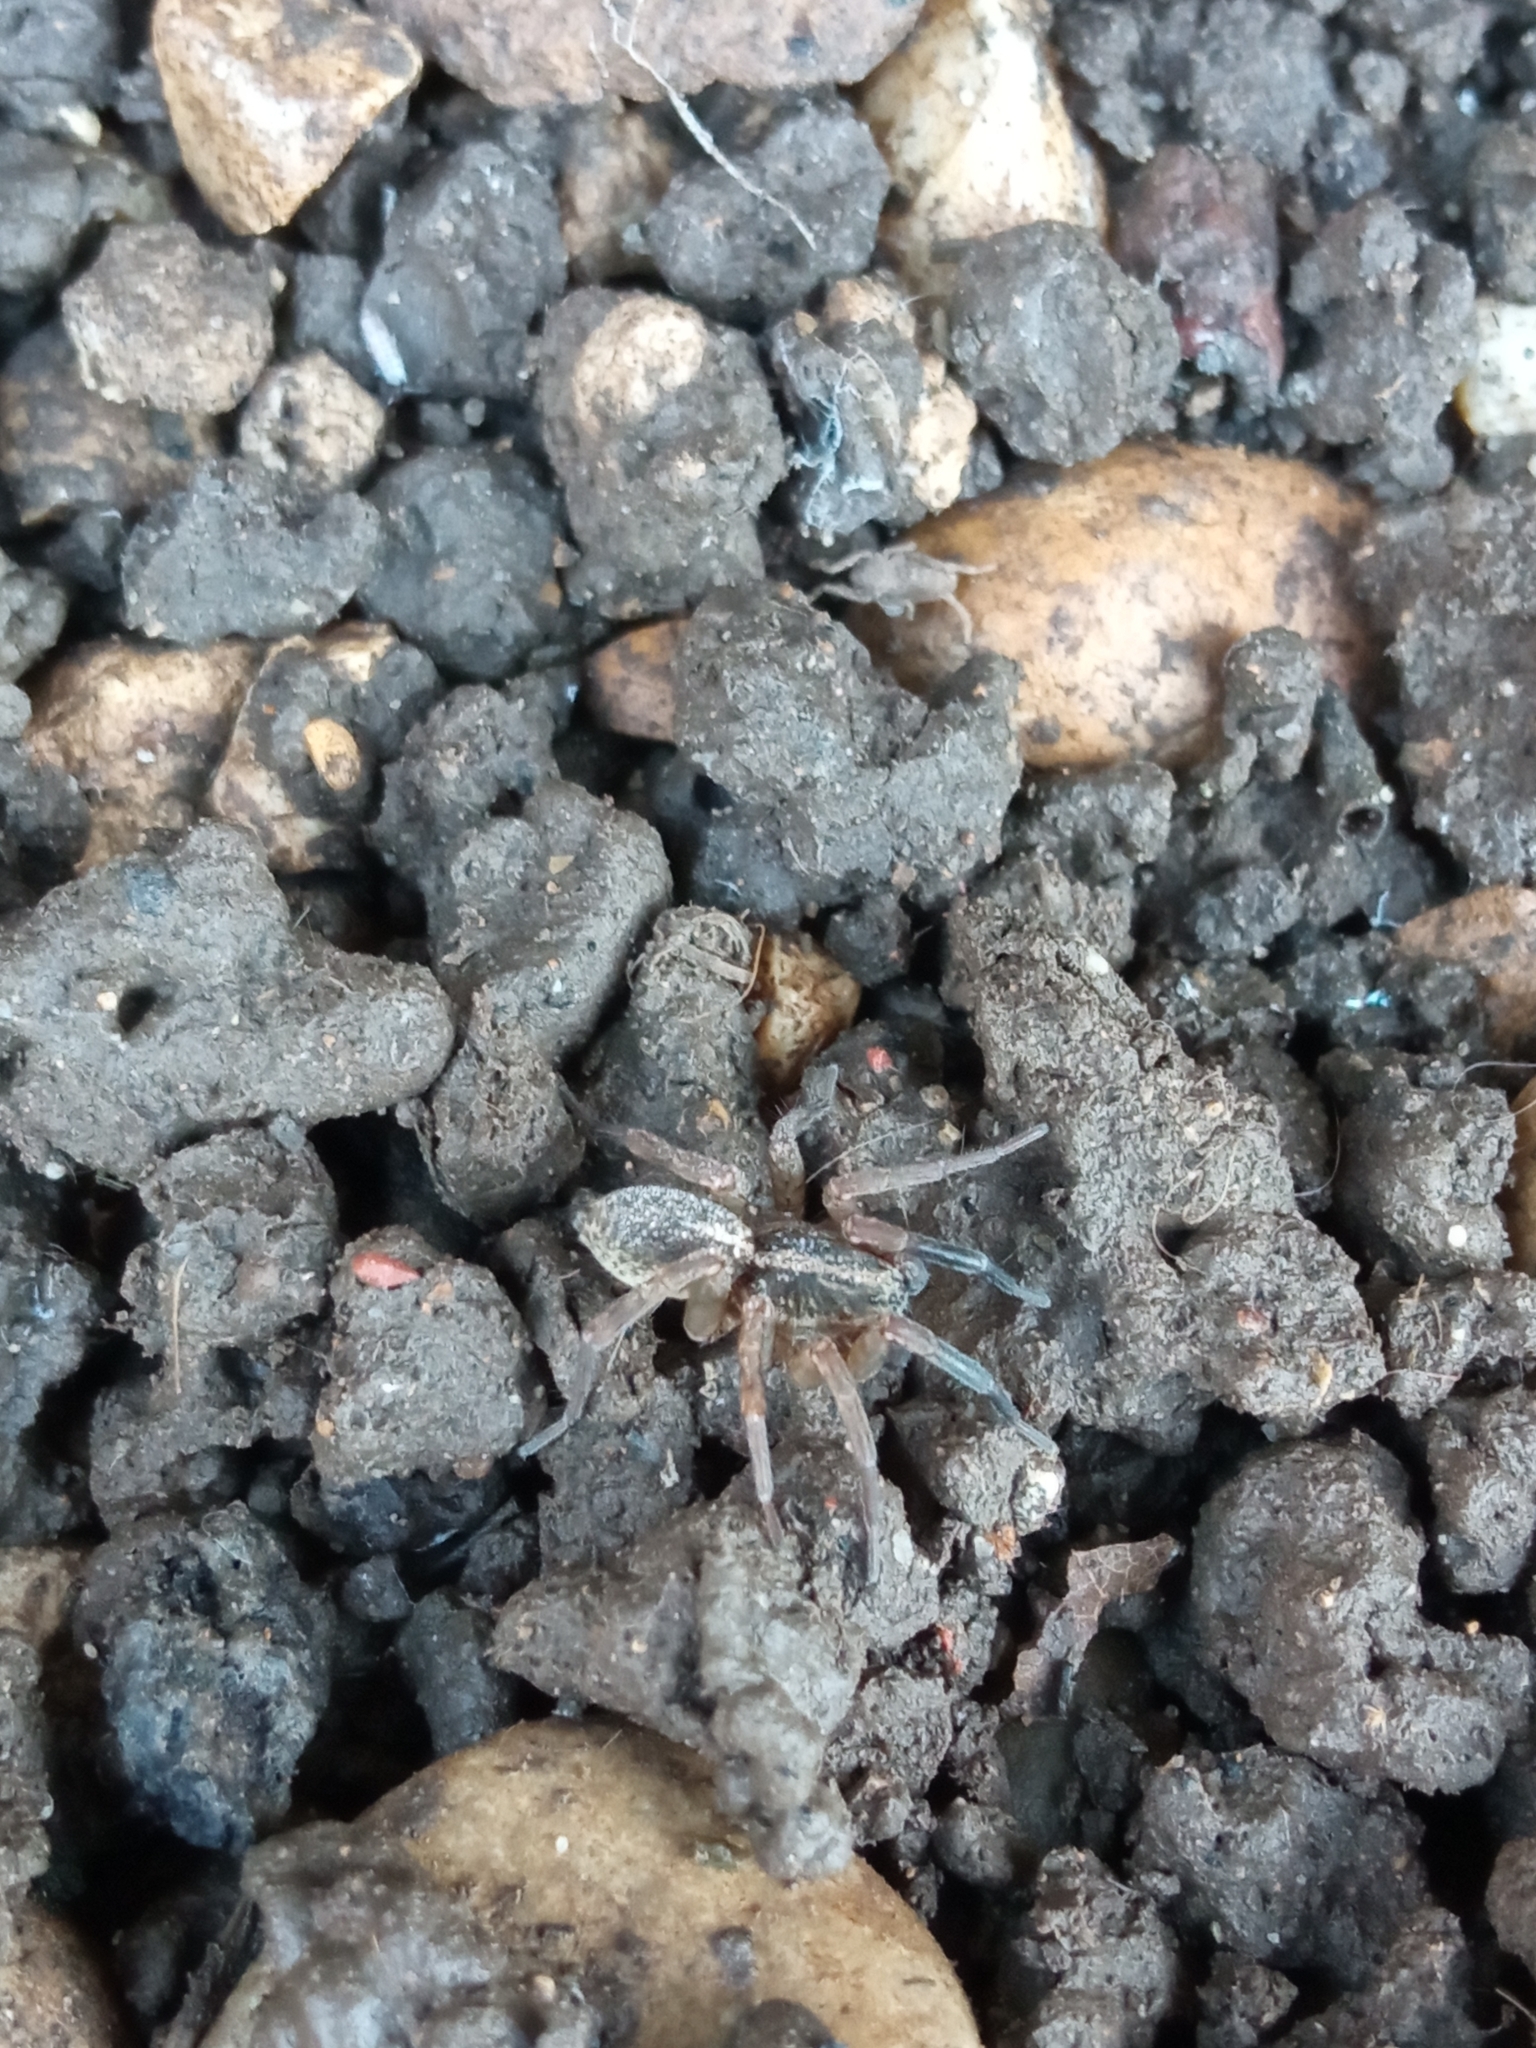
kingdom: Animalia
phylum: Arthropoda
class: Arachnida
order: Araneae
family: Lycosidae
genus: Trochosa
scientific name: Trochosa
